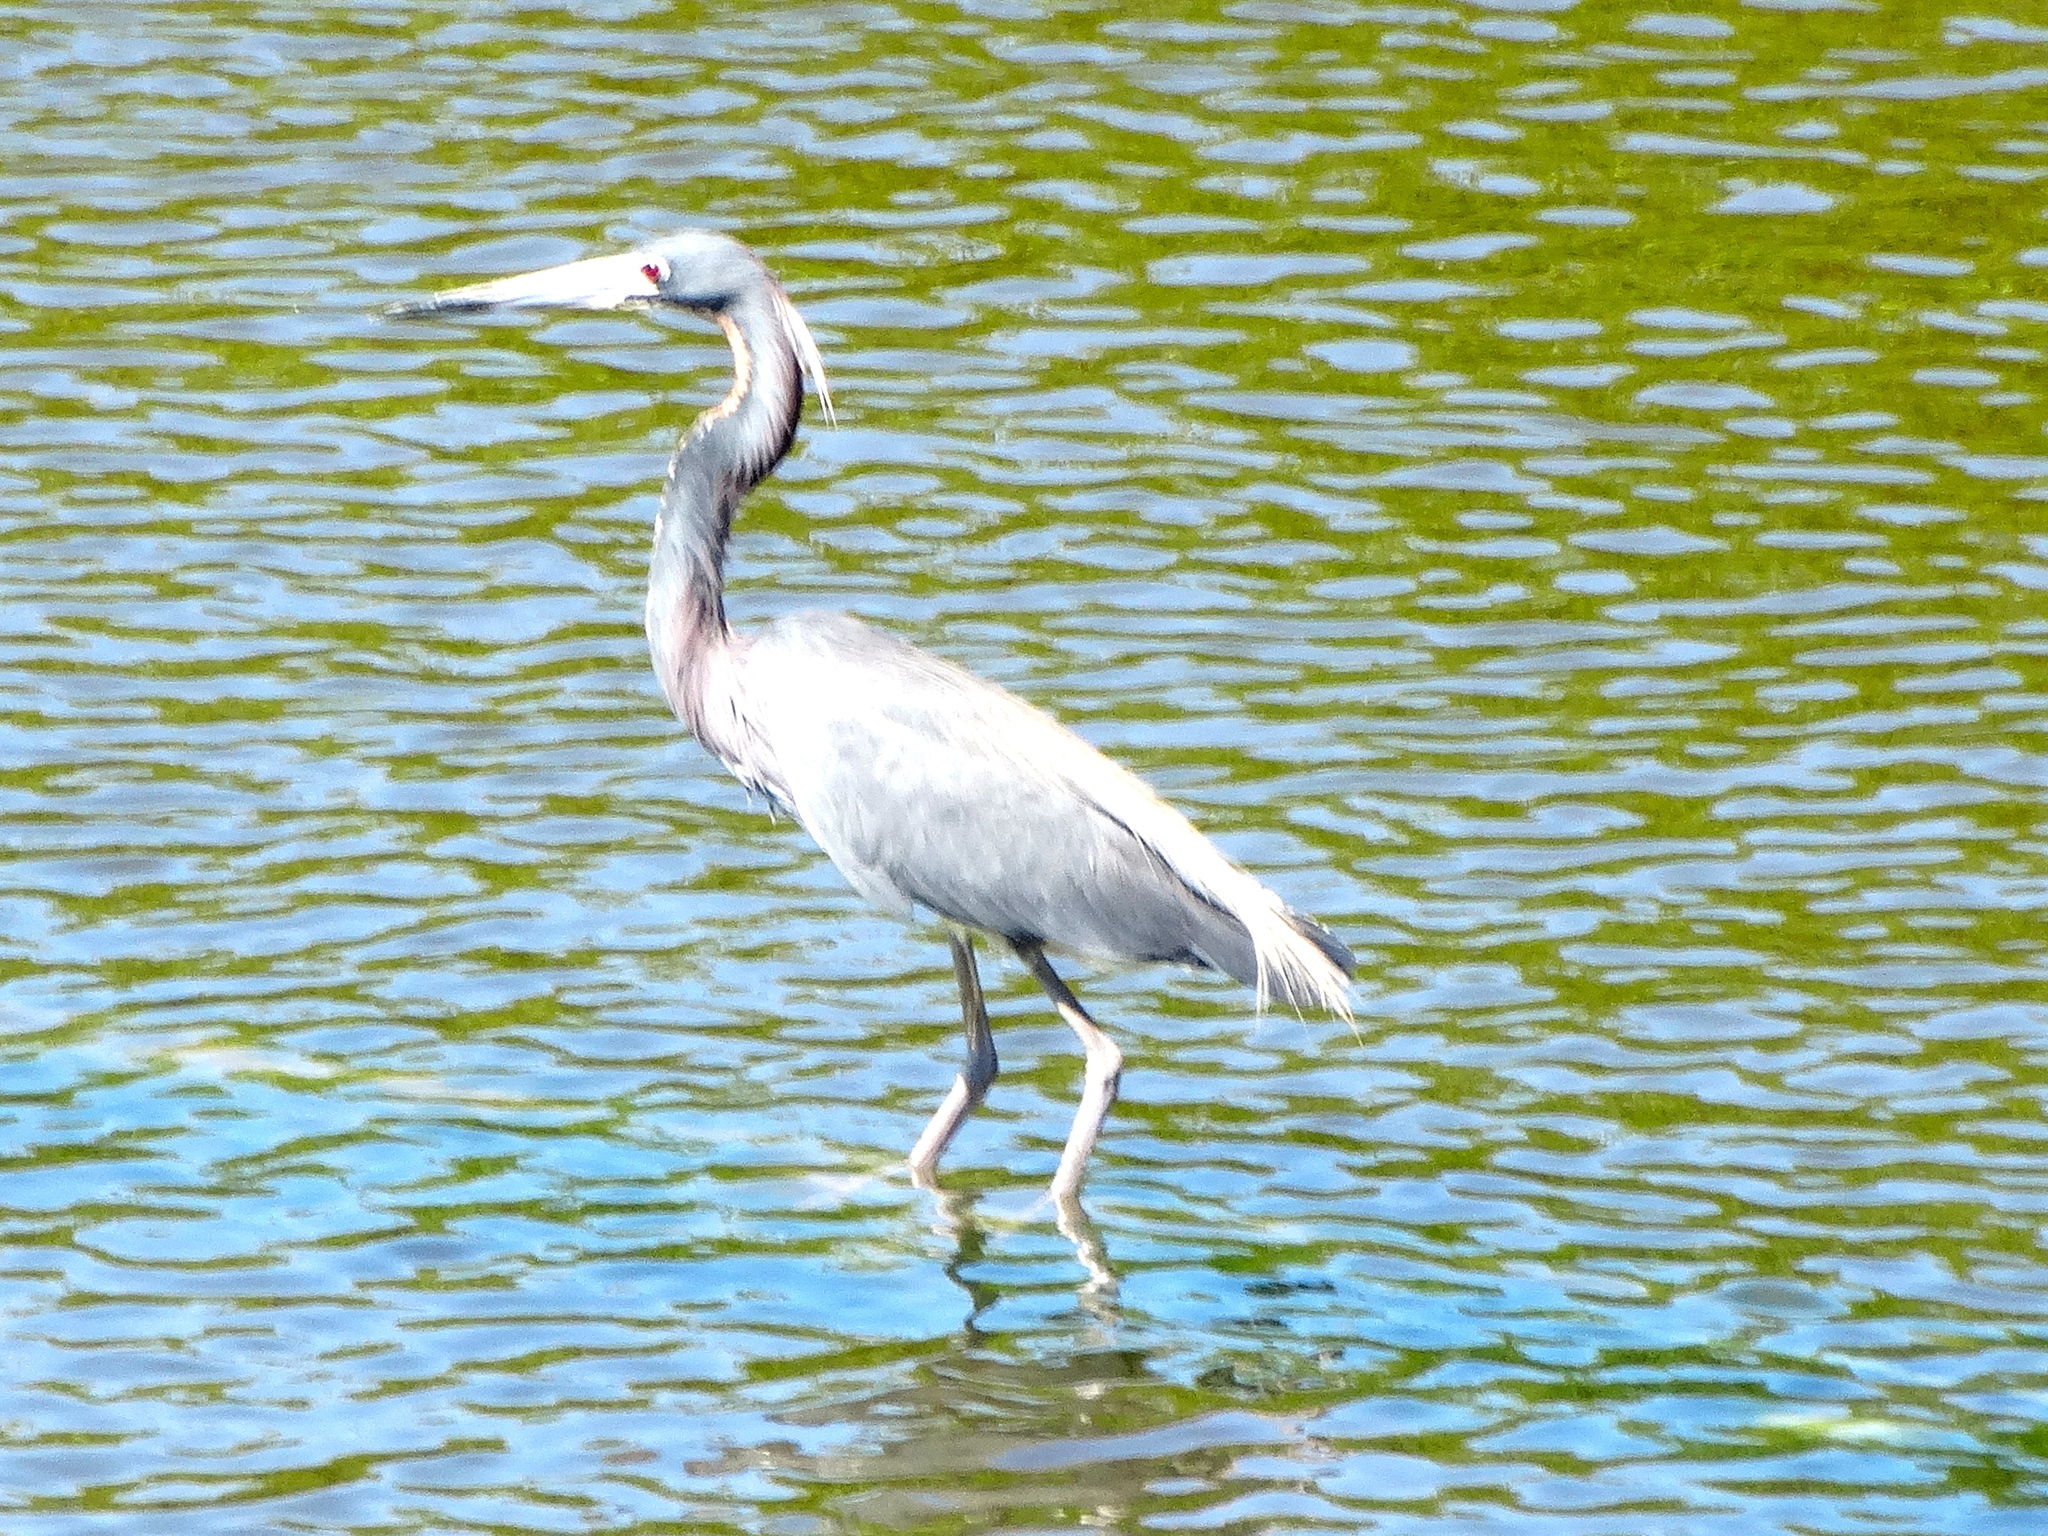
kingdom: Animalia
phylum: Chordata
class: Aves
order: Pelecaniformes
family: Ardeidae
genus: Egretta
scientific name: Egretta tricolor
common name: Tricolored heron
